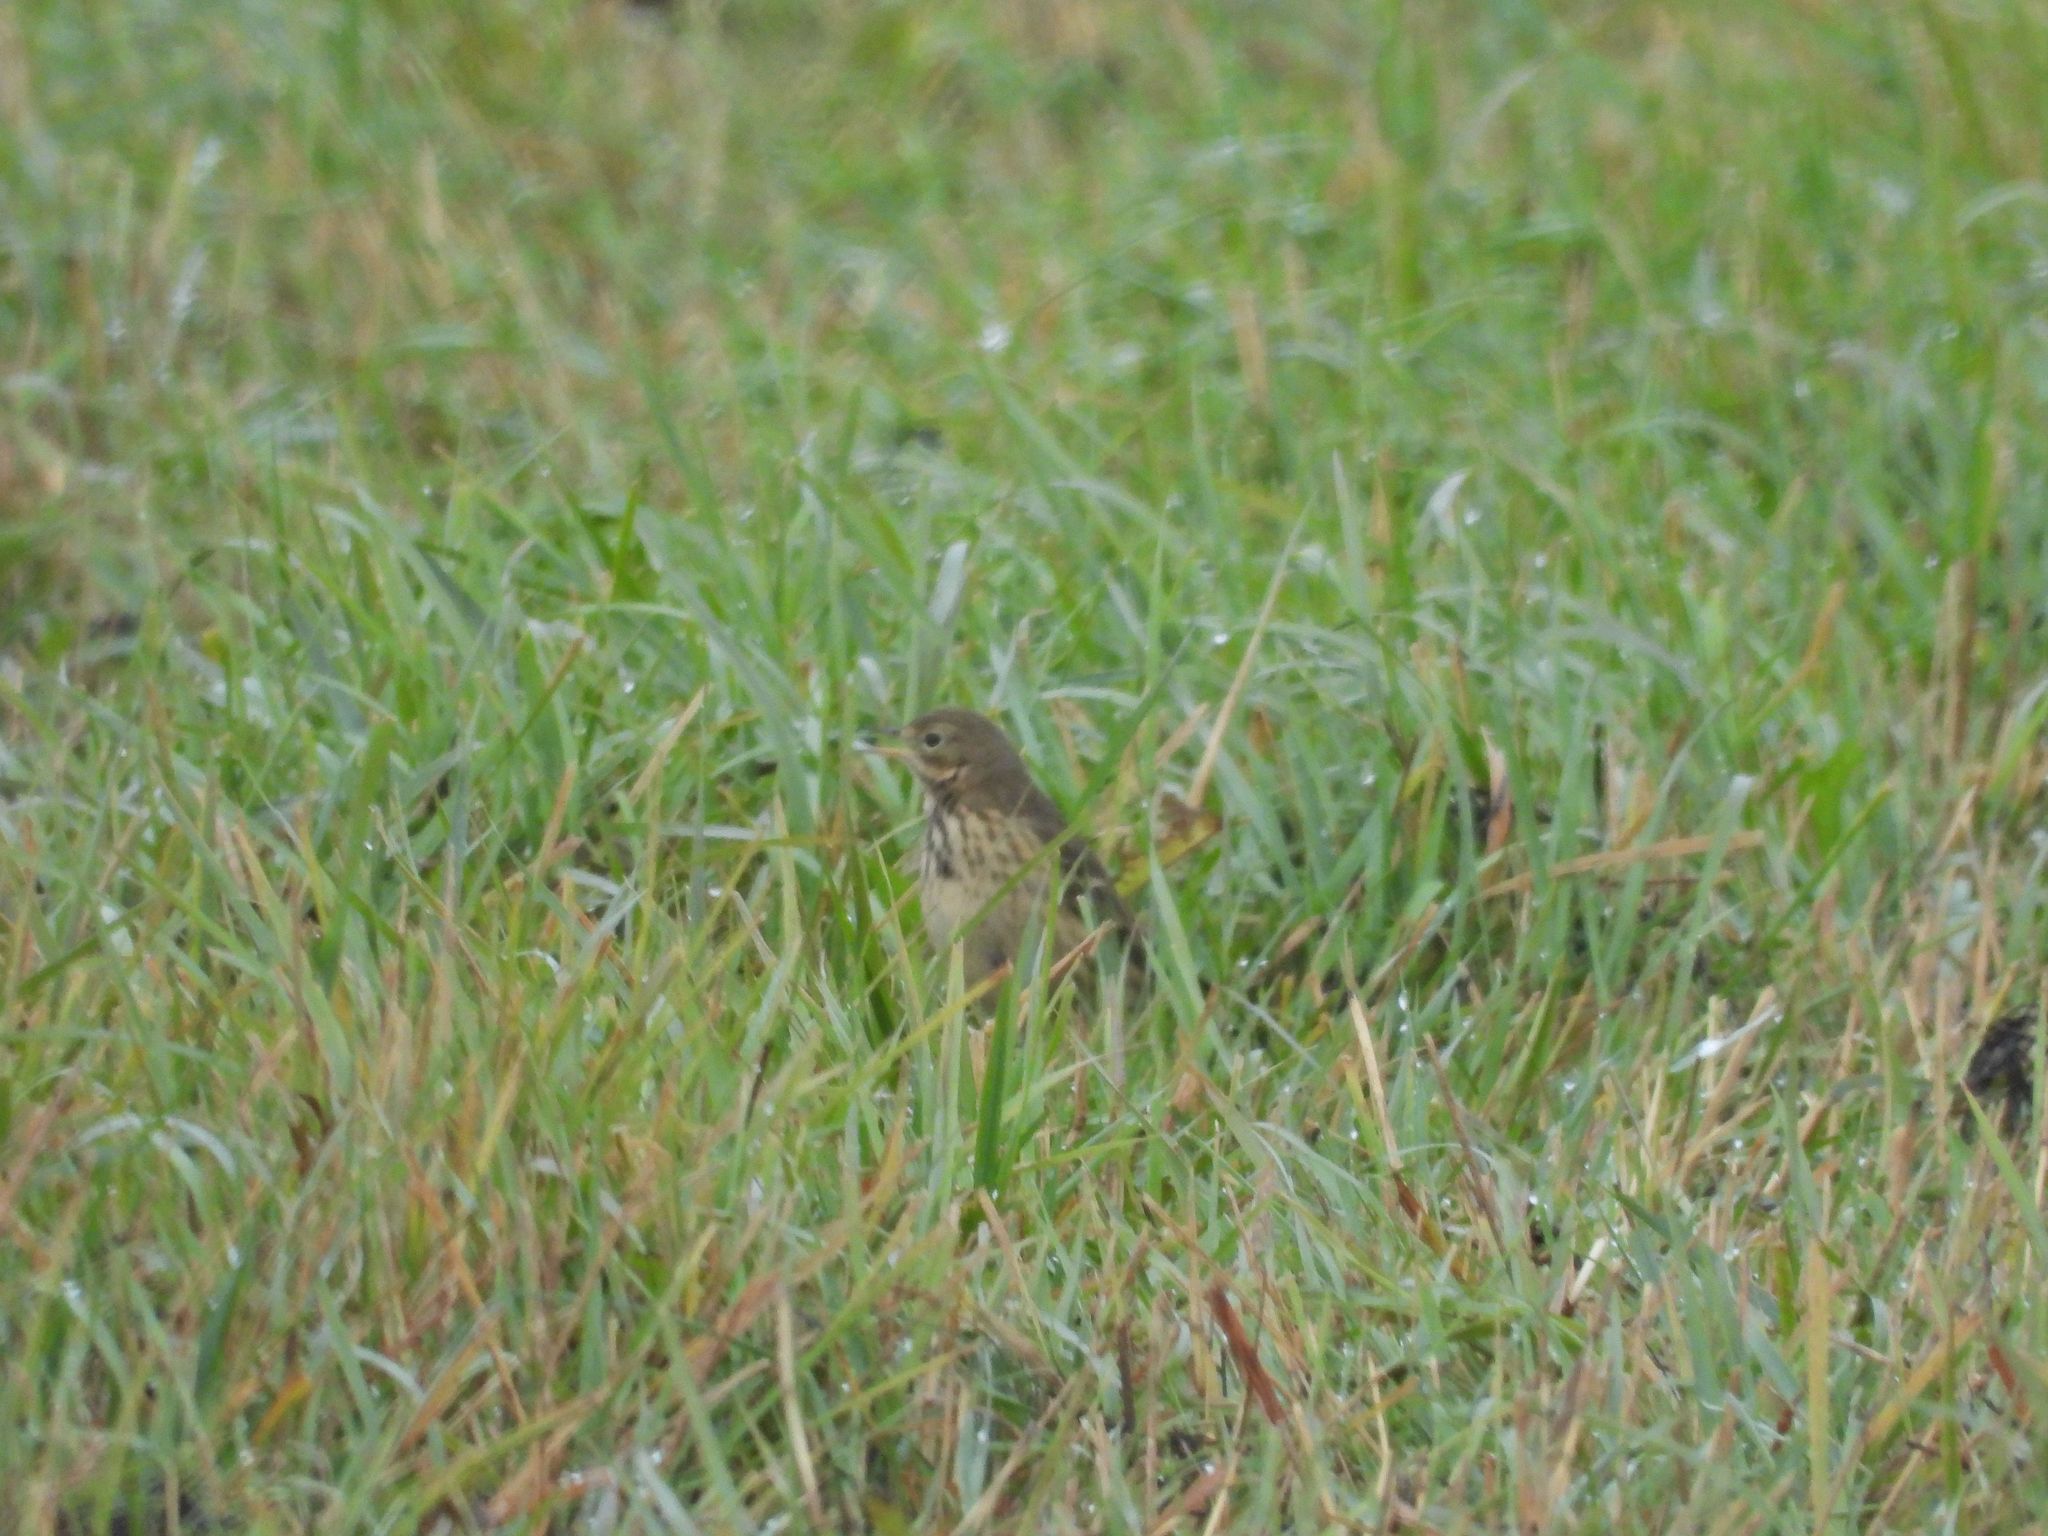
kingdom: Animalia
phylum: Chordata
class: Aves
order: Passeriformes
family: Motacillidae
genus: Anthus
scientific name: Anthus rubescens
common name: Buff-bellied pipit
